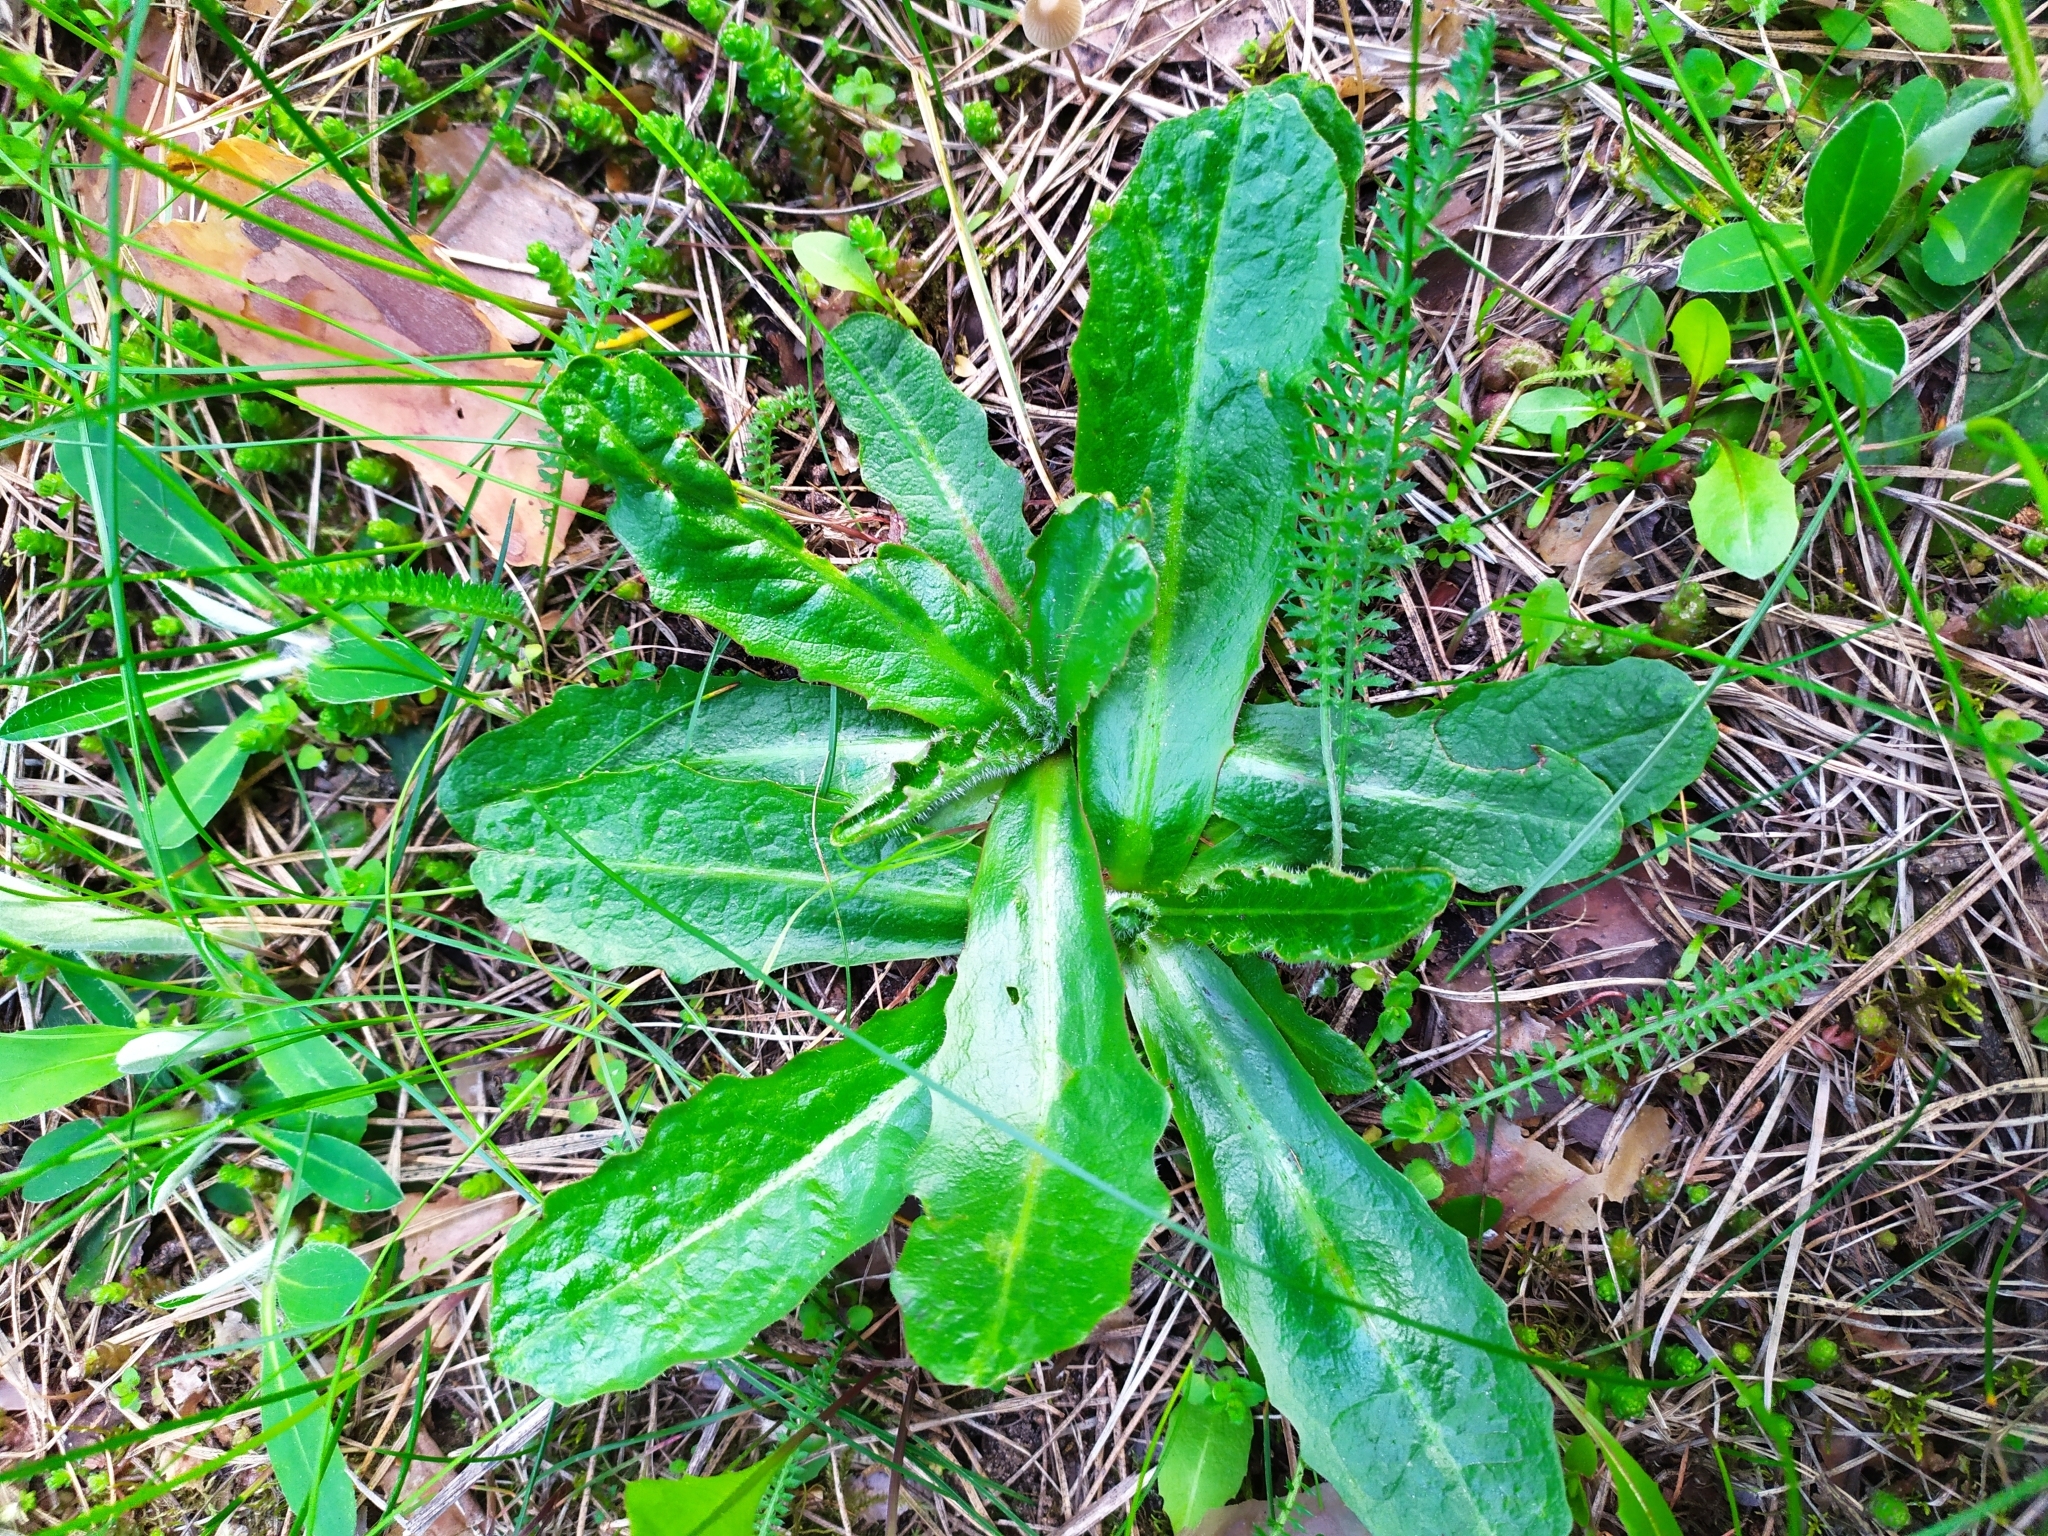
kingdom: Plantae
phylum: Tracheophyta
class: Magnoliopsida
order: Asterales
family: Asteraceae
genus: Hypochaeris
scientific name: Hypochaeris radicata
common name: Flatweed
